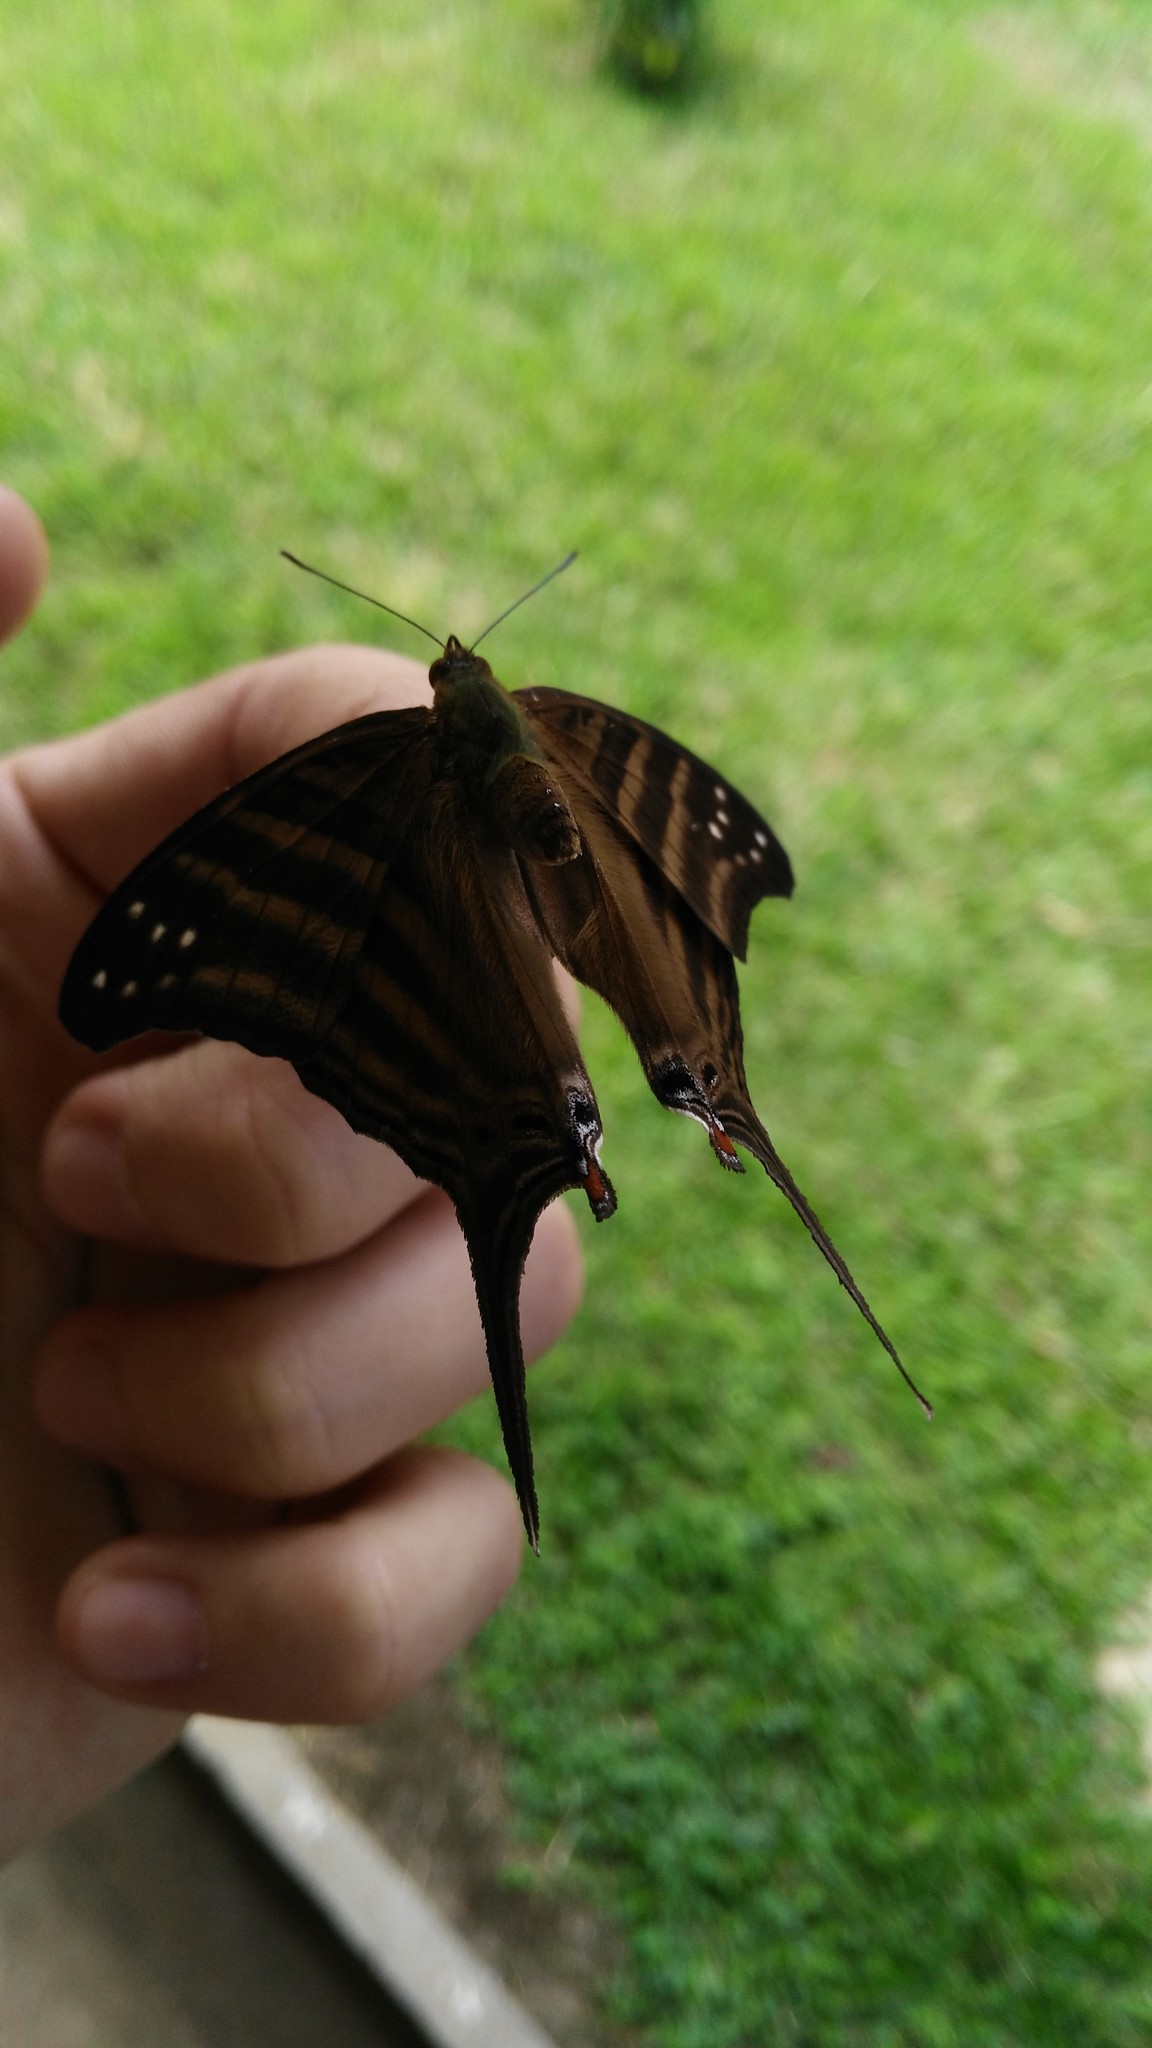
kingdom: Animalia
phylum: Arthropoda
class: Insecta
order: Lepidoptera
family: Nymphalidae
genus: Marpesia
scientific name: Marpesia chiron
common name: Many-banded daggerwing
